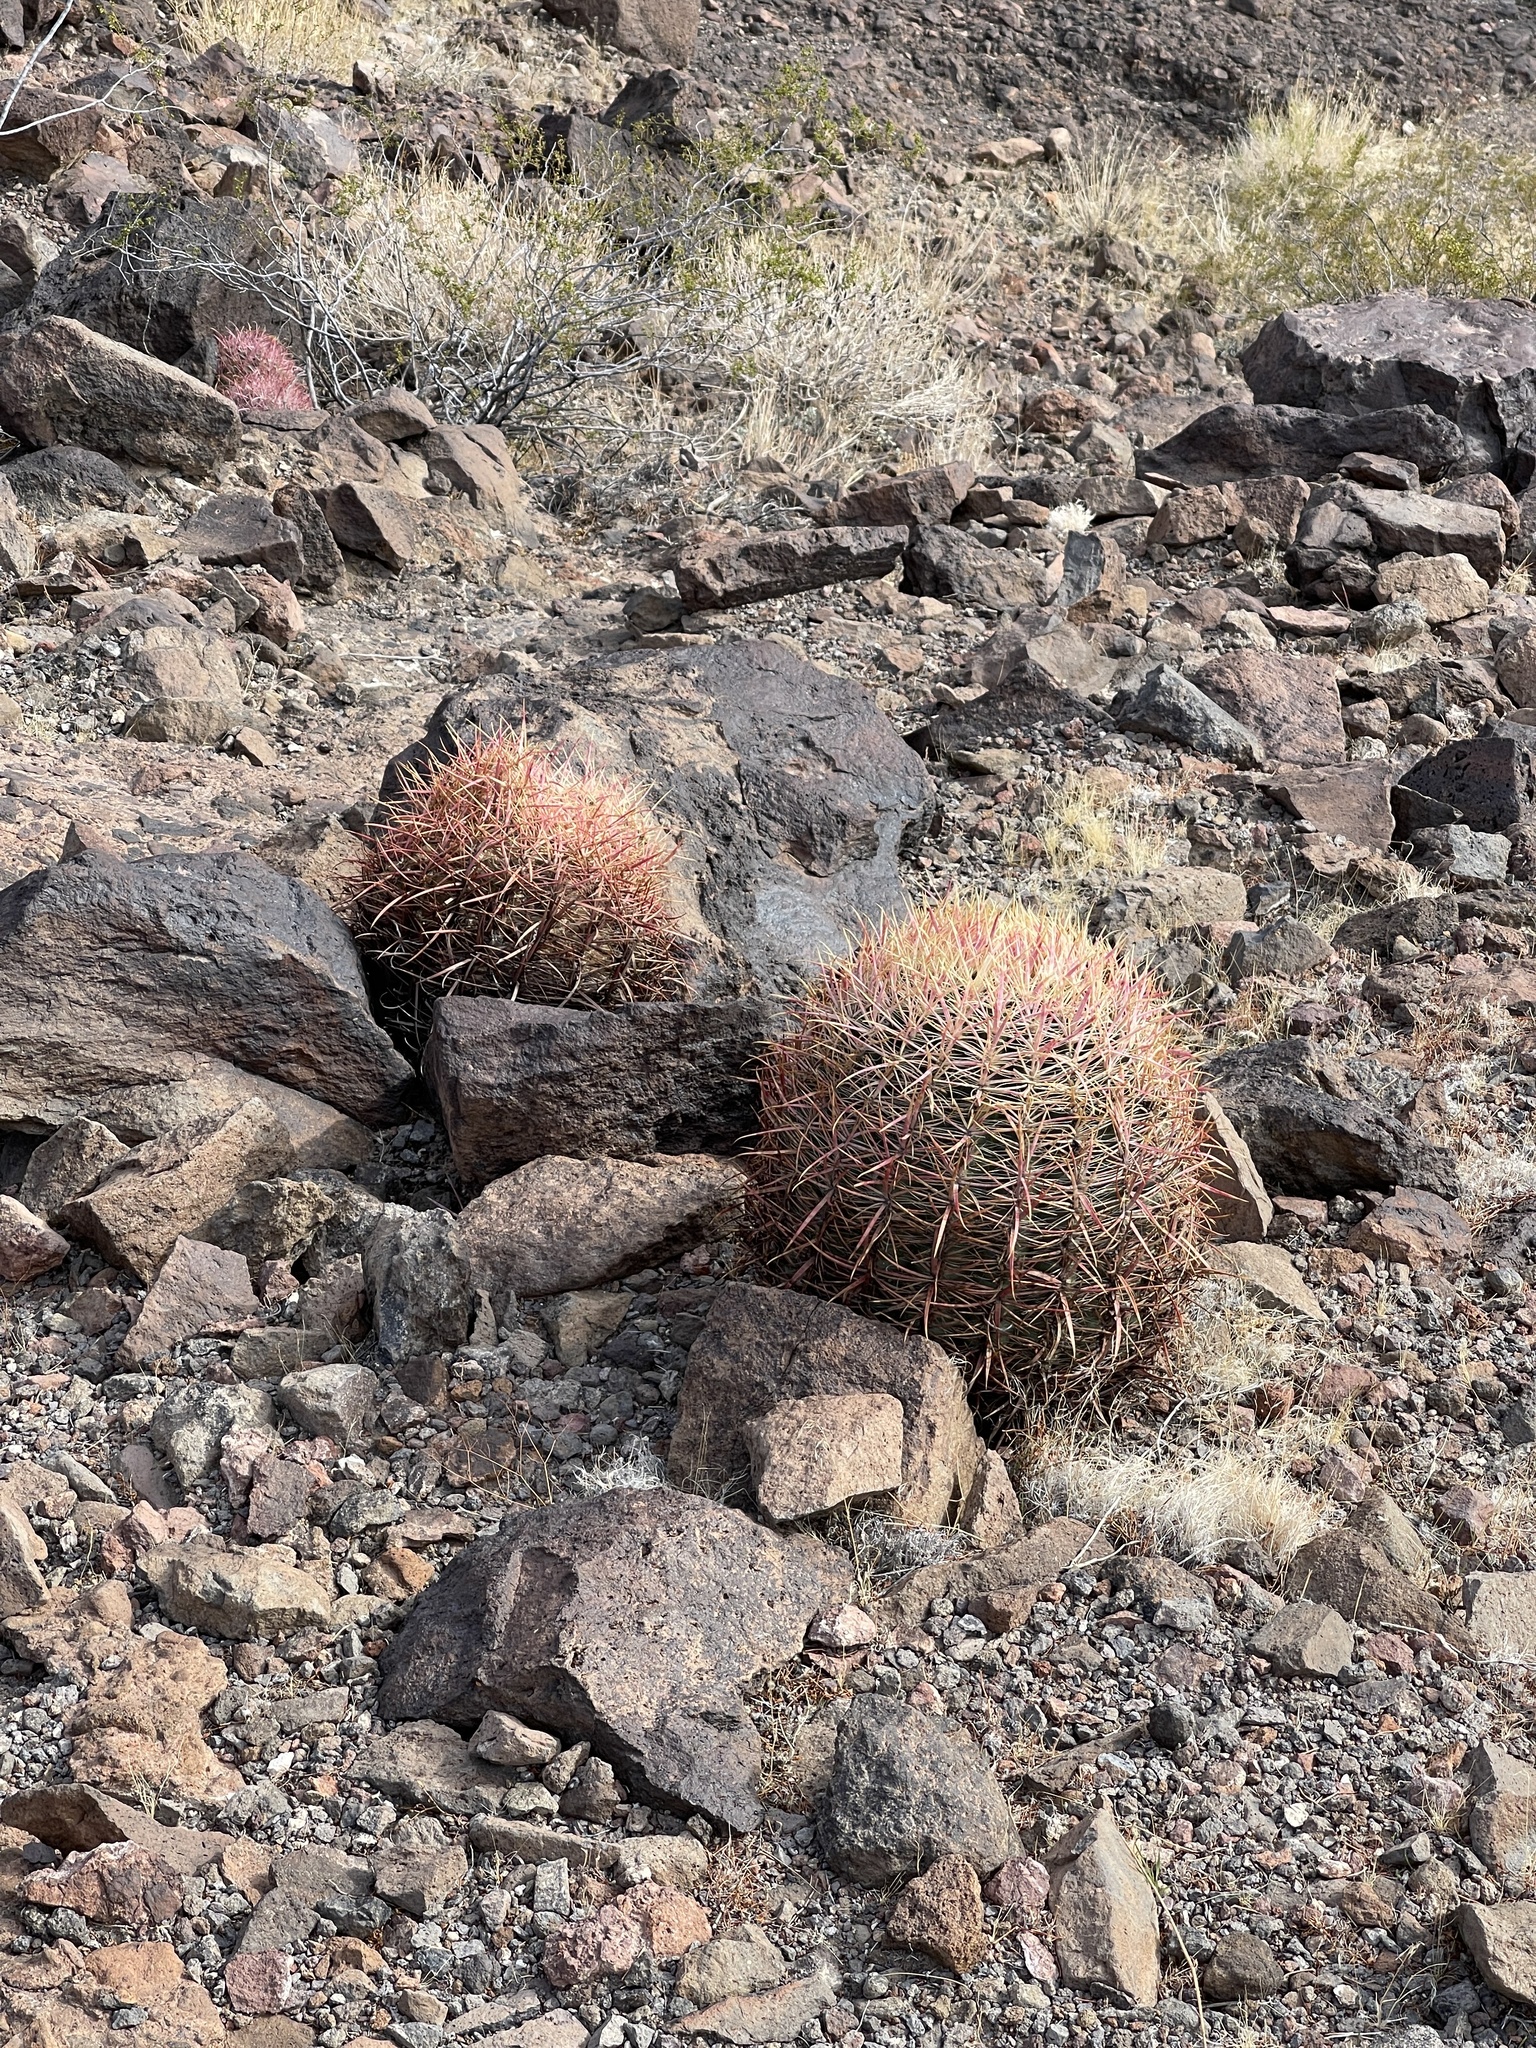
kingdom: Plantae
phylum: Tracheophyta
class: Magnoliopsida
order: Caryophyllales
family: Cactaceae
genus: Ferocactus
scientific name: Ferocactus cylindraceus
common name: California barrel cactus
